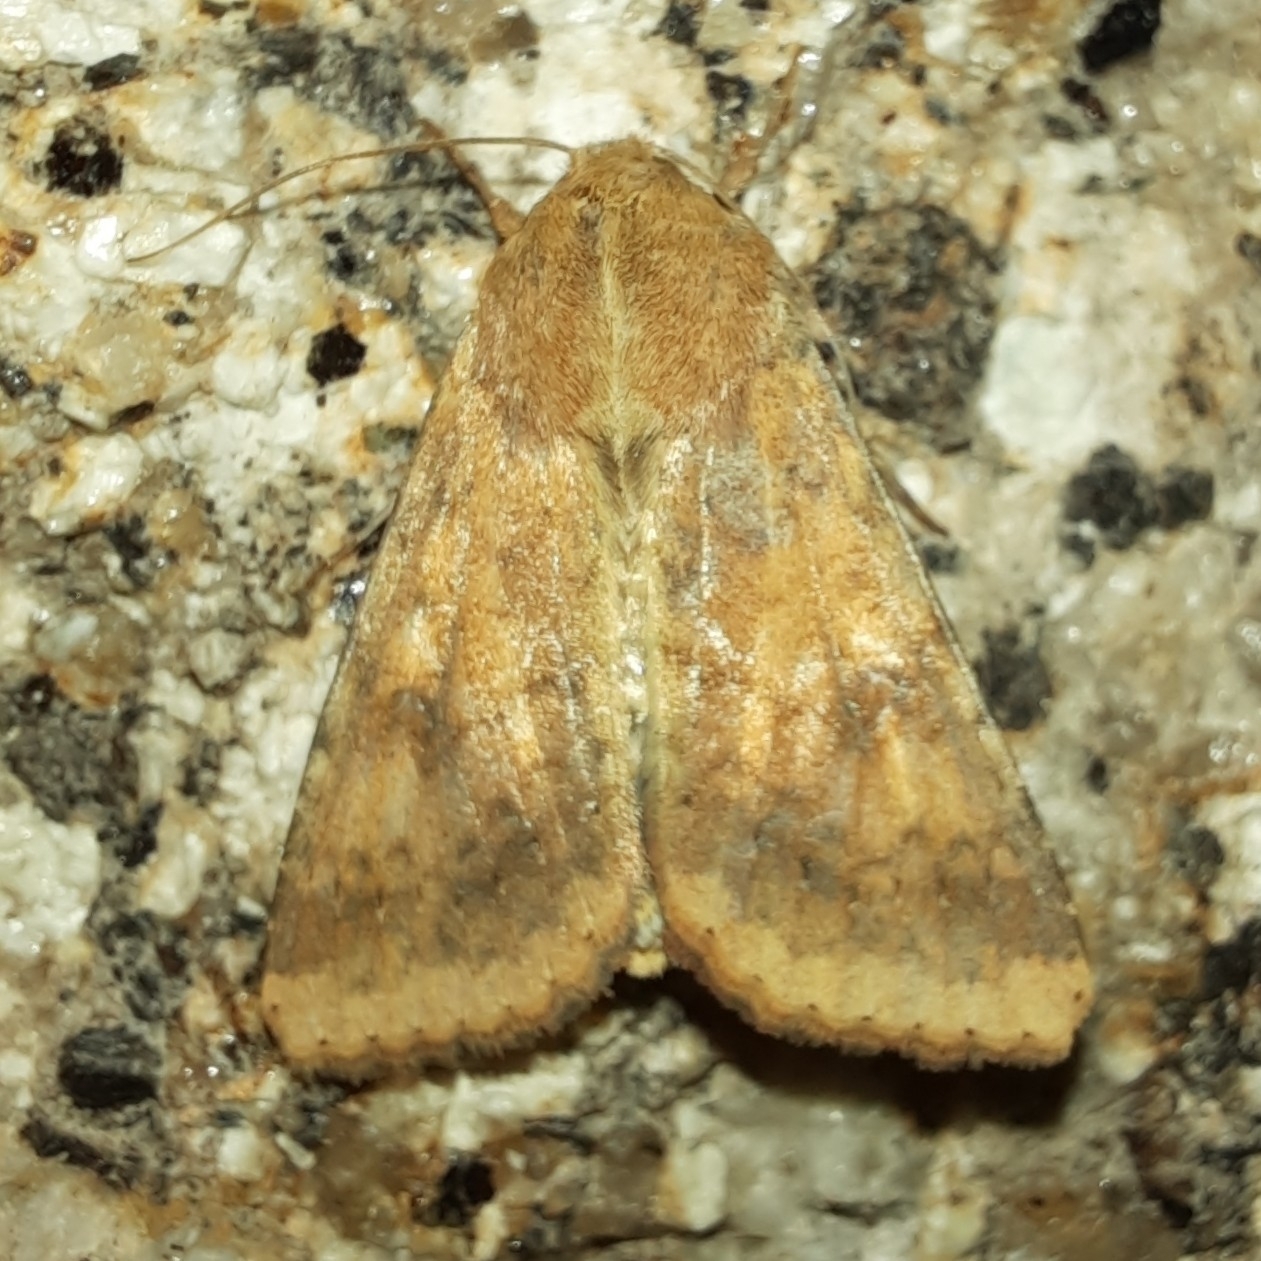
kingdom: Animalia
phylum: Arthropoda
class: Insecta
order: Lepidoptera
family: Noctuidae
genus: Helicoverpa
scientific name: Helicoverpa armigera
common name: Cotton bollworm
